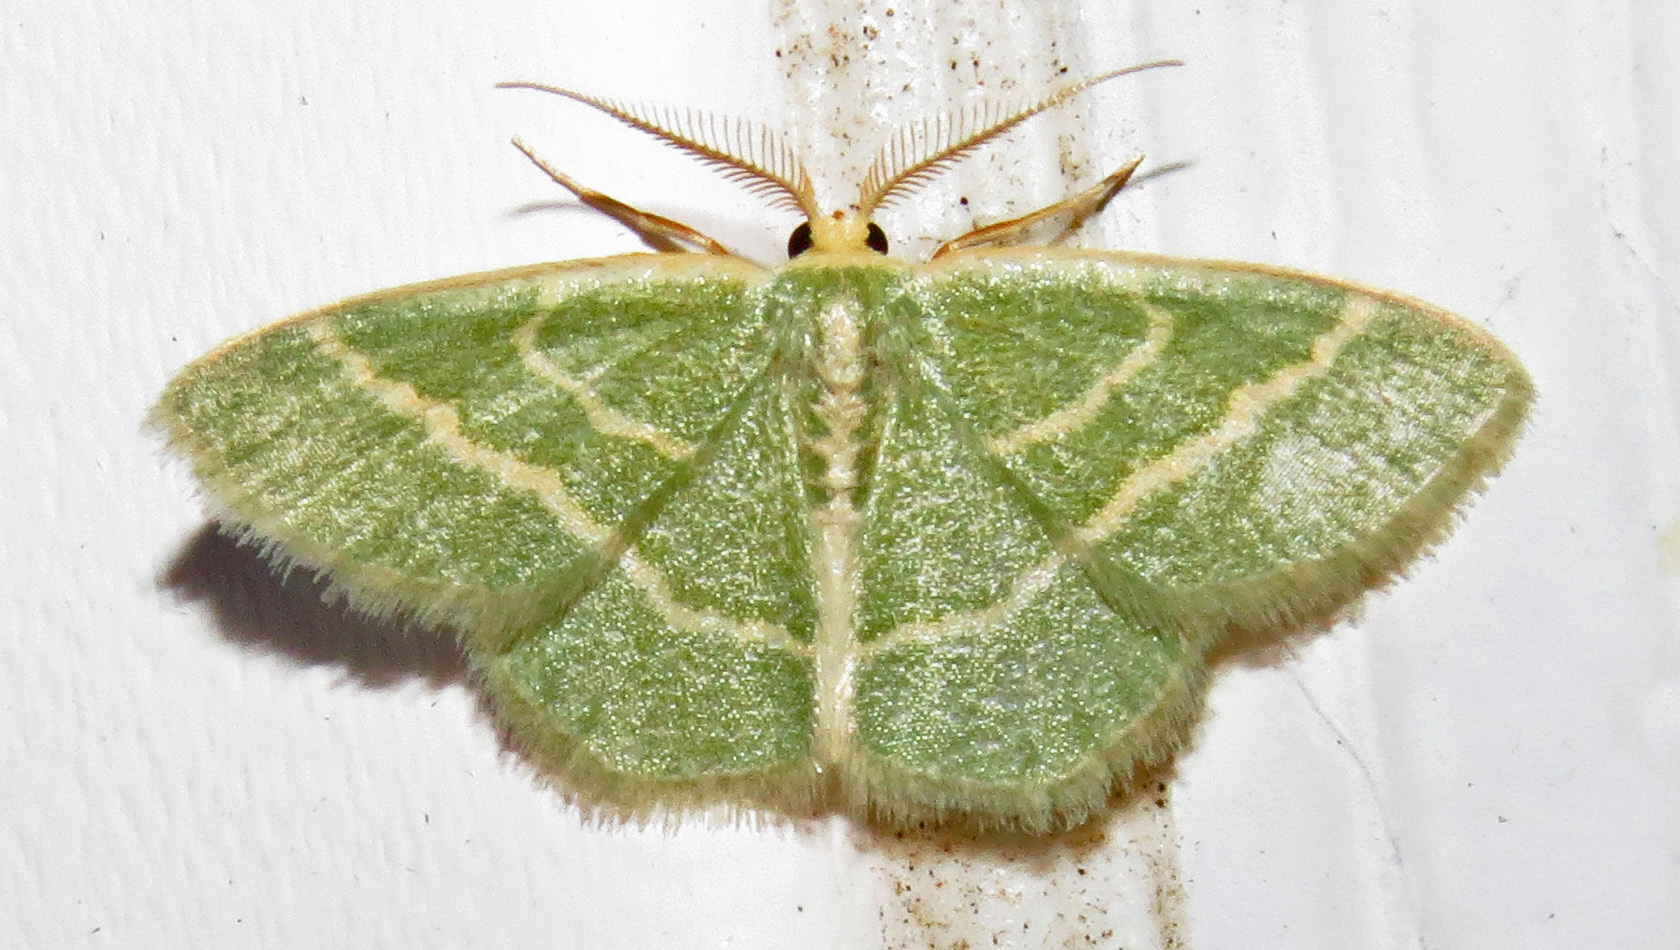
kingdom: Animalia
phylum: Arthropoda
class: Insecta
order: Lepidoptera
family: Geometridae
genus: Chlorochlamys
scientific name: Chlorochlamys chloroleucaria
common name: Blackberry looper
